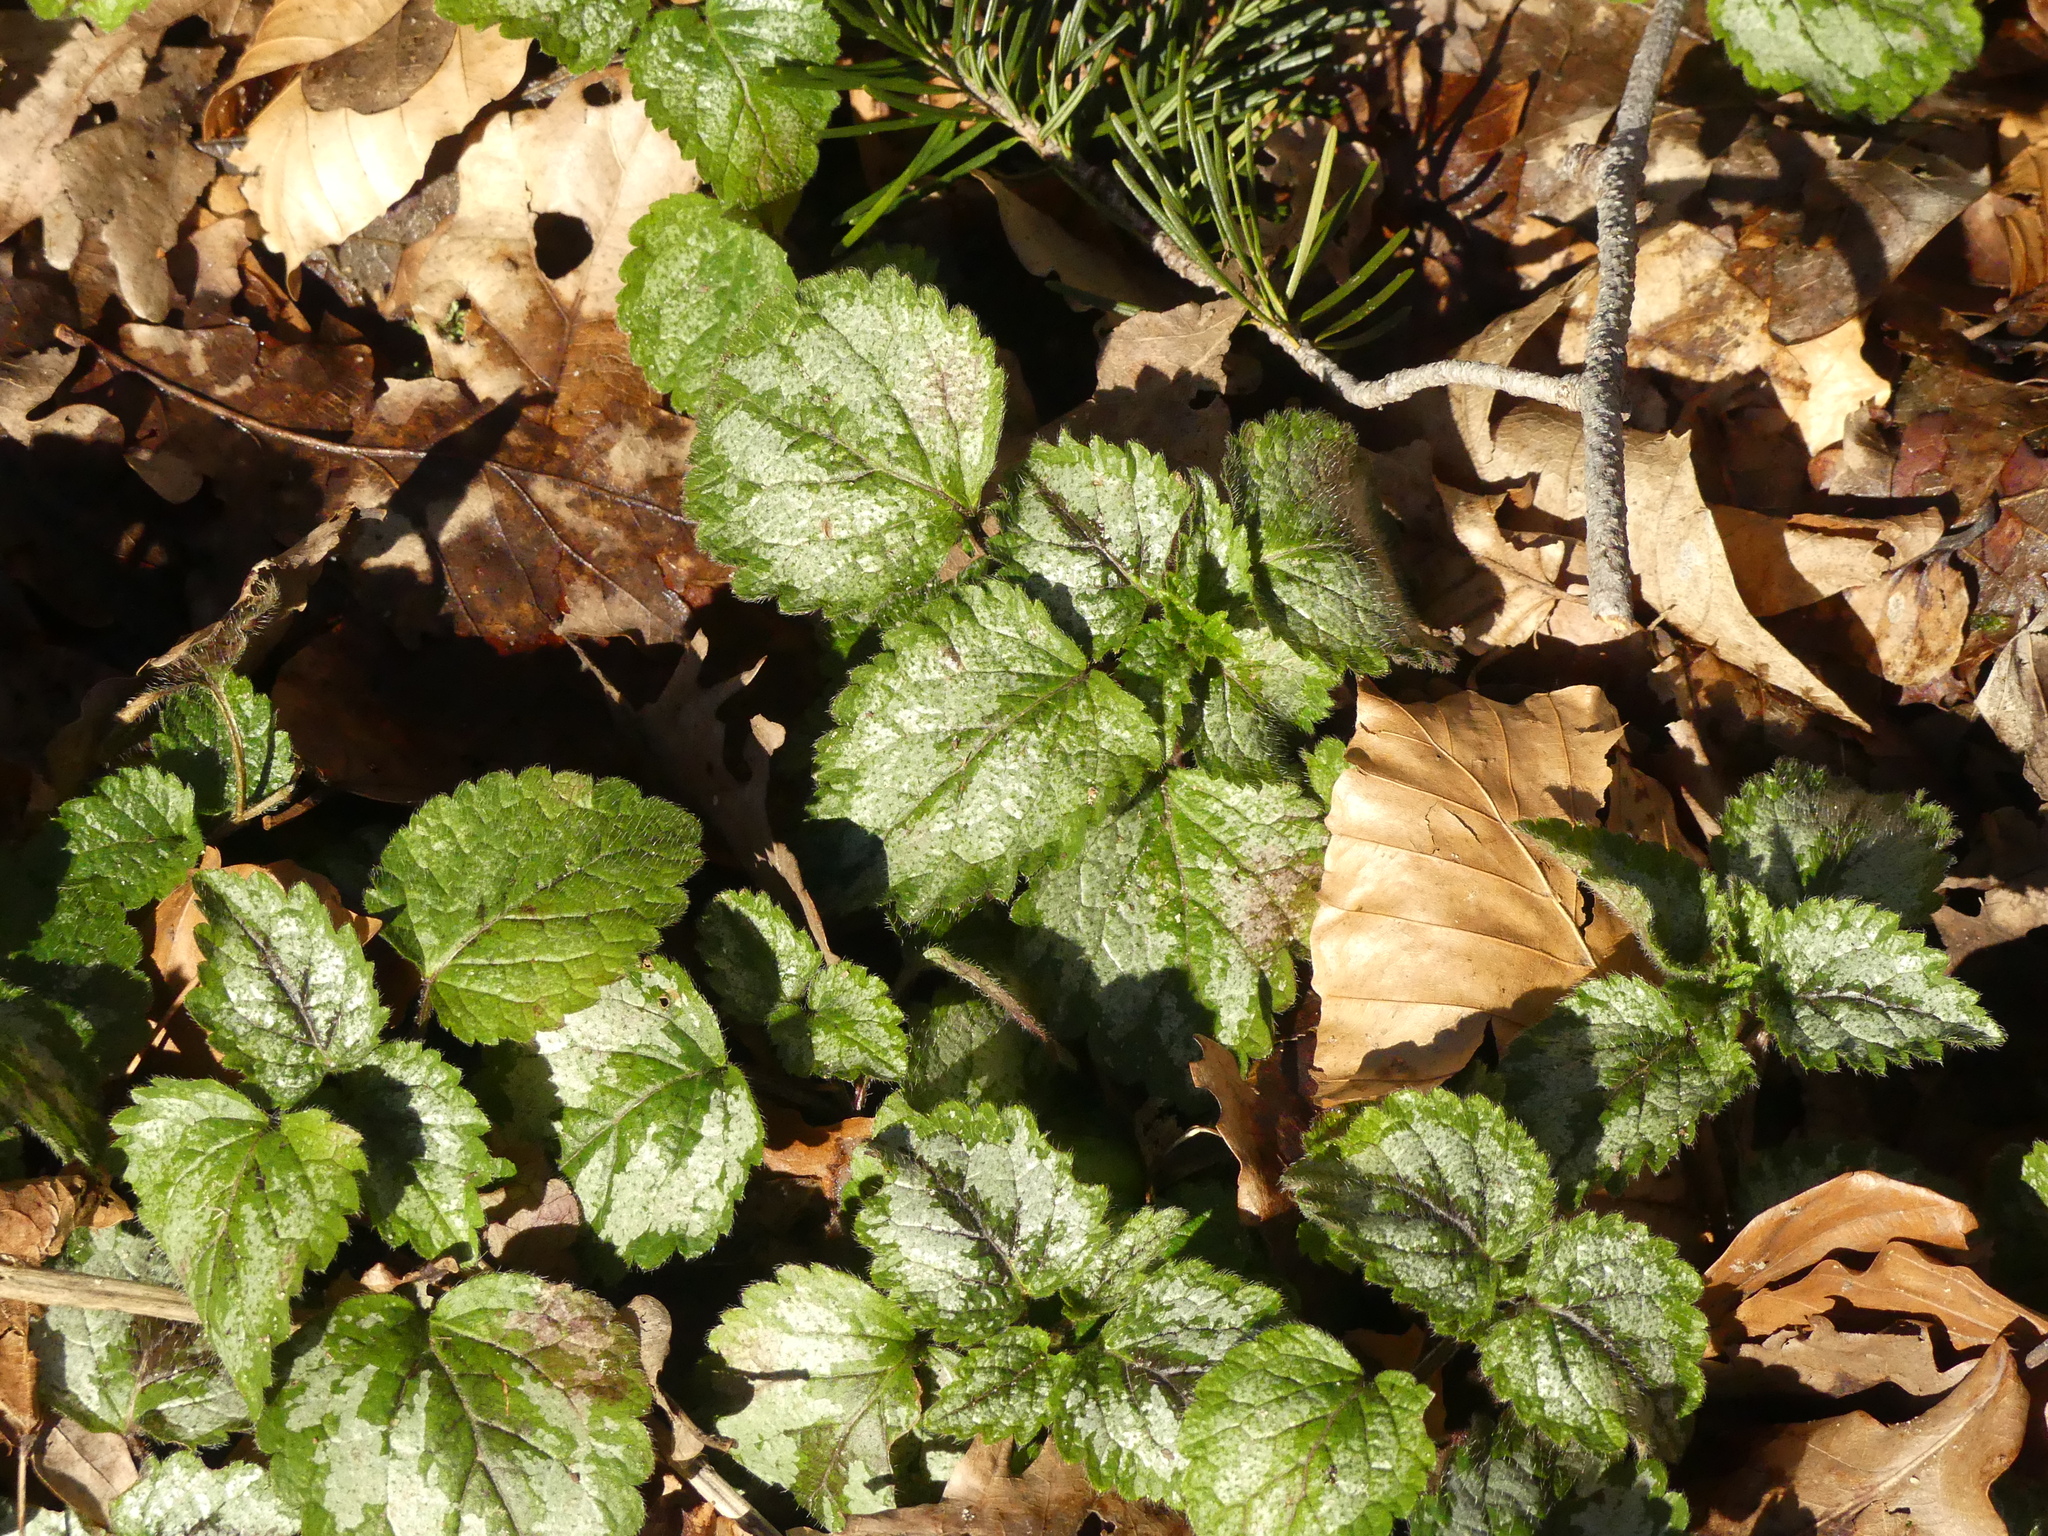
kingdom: Plantae
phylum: Tracheophyta
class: Magnoliopsida
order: Lamiales
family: Lamiaceae
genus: Lamium
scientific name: Lamium galeobdolon
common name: Yellow archangel
